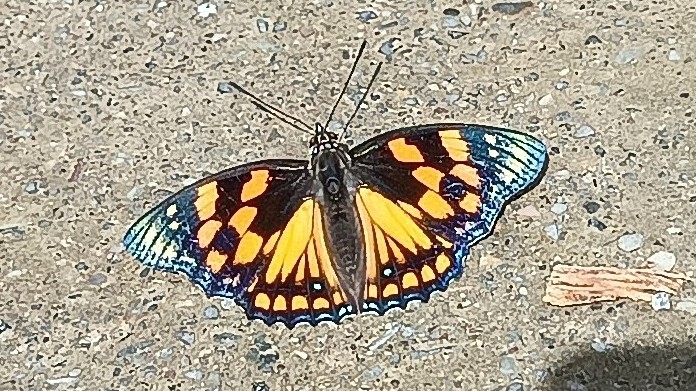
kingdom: Animalia
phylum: Arthropoda
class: Insecta
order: Lepidoptera
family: Nymphalidae
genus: Sephisa
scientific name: Sephisa dichroa
